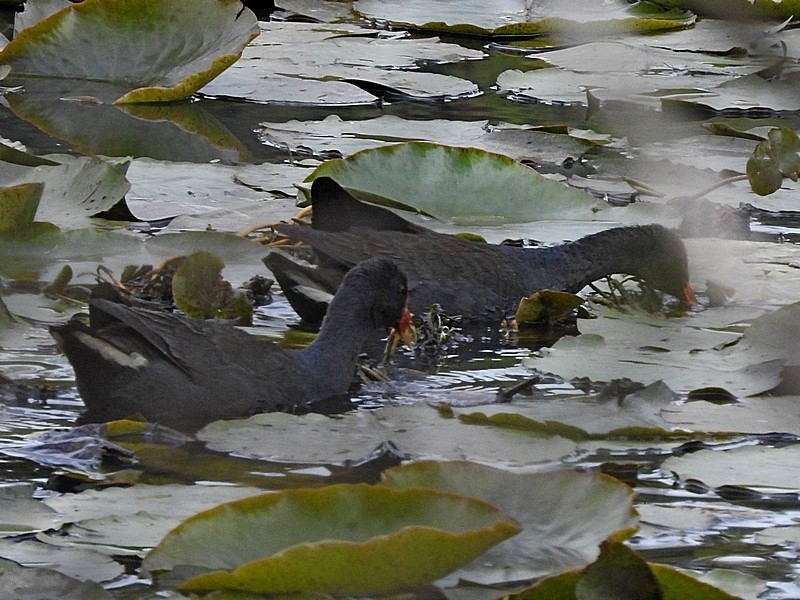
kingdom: Animalia
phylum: Chordata
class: Aves
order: Gruiformes
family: Rallidae
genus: Gallinula
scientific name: Gallinula tenebrosa
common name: Dusky moorhen
